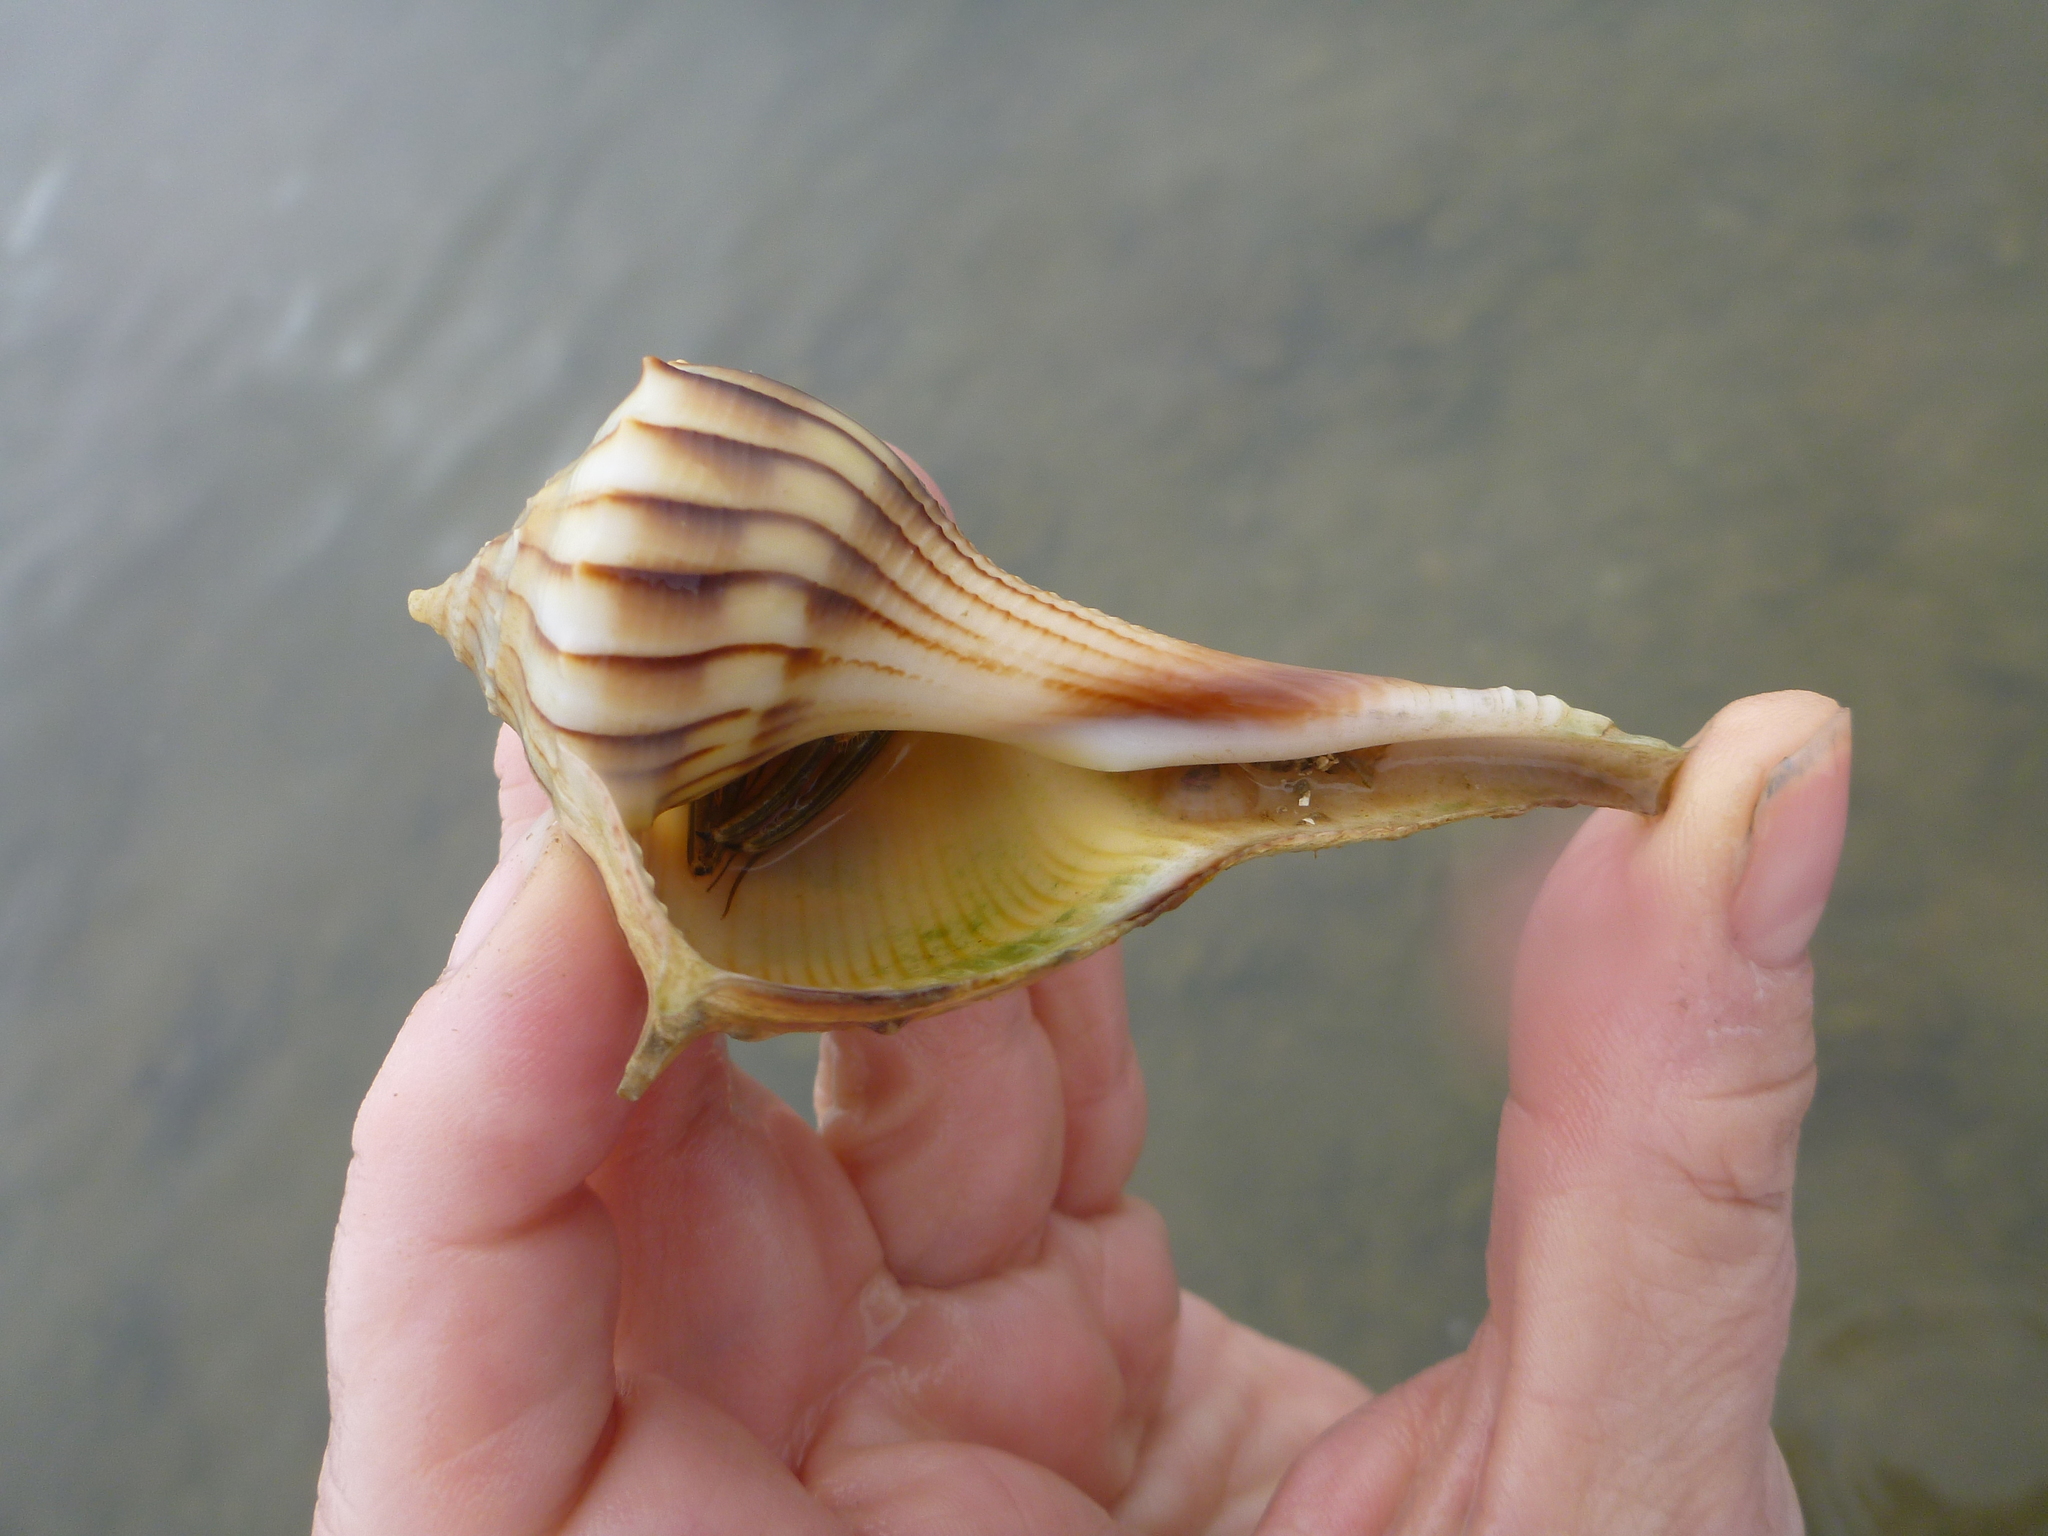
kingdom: Animalia
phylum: Mollusca
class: Gastropoda
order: Neogastropoda
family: Busyconidae
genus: Sinistrofulgur
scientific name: Sinistrofulgur pulleyi
